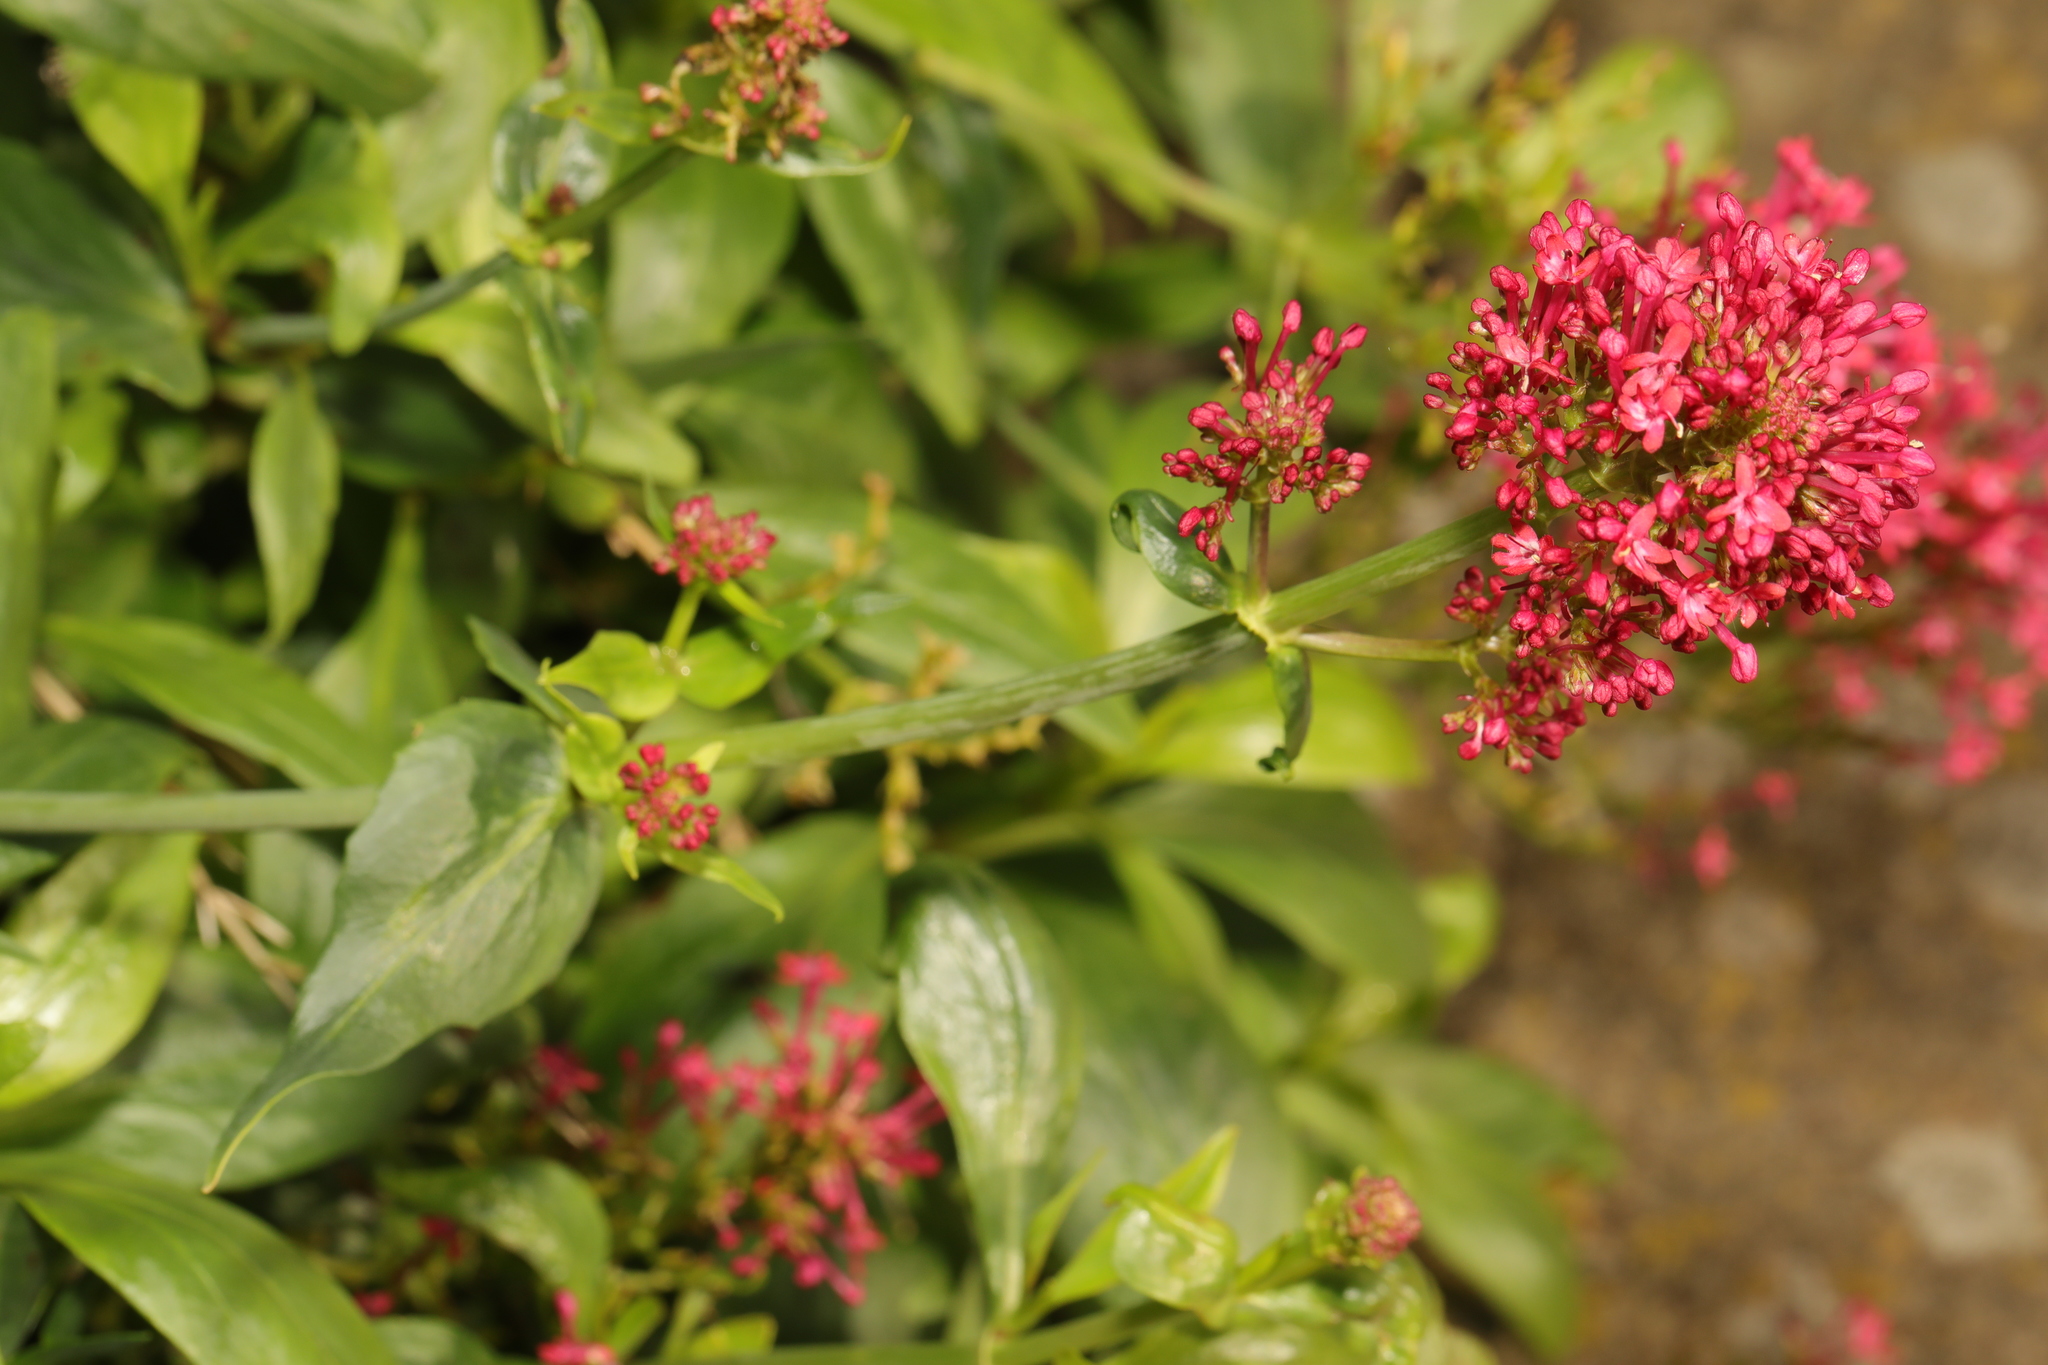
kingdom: Plantae
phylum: Tracheophyta
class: Magnoliopsida
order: Dipsacales
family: Caprifoliaceae
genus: Centranthus
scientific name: Centranthus ruber
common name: Red valerian
